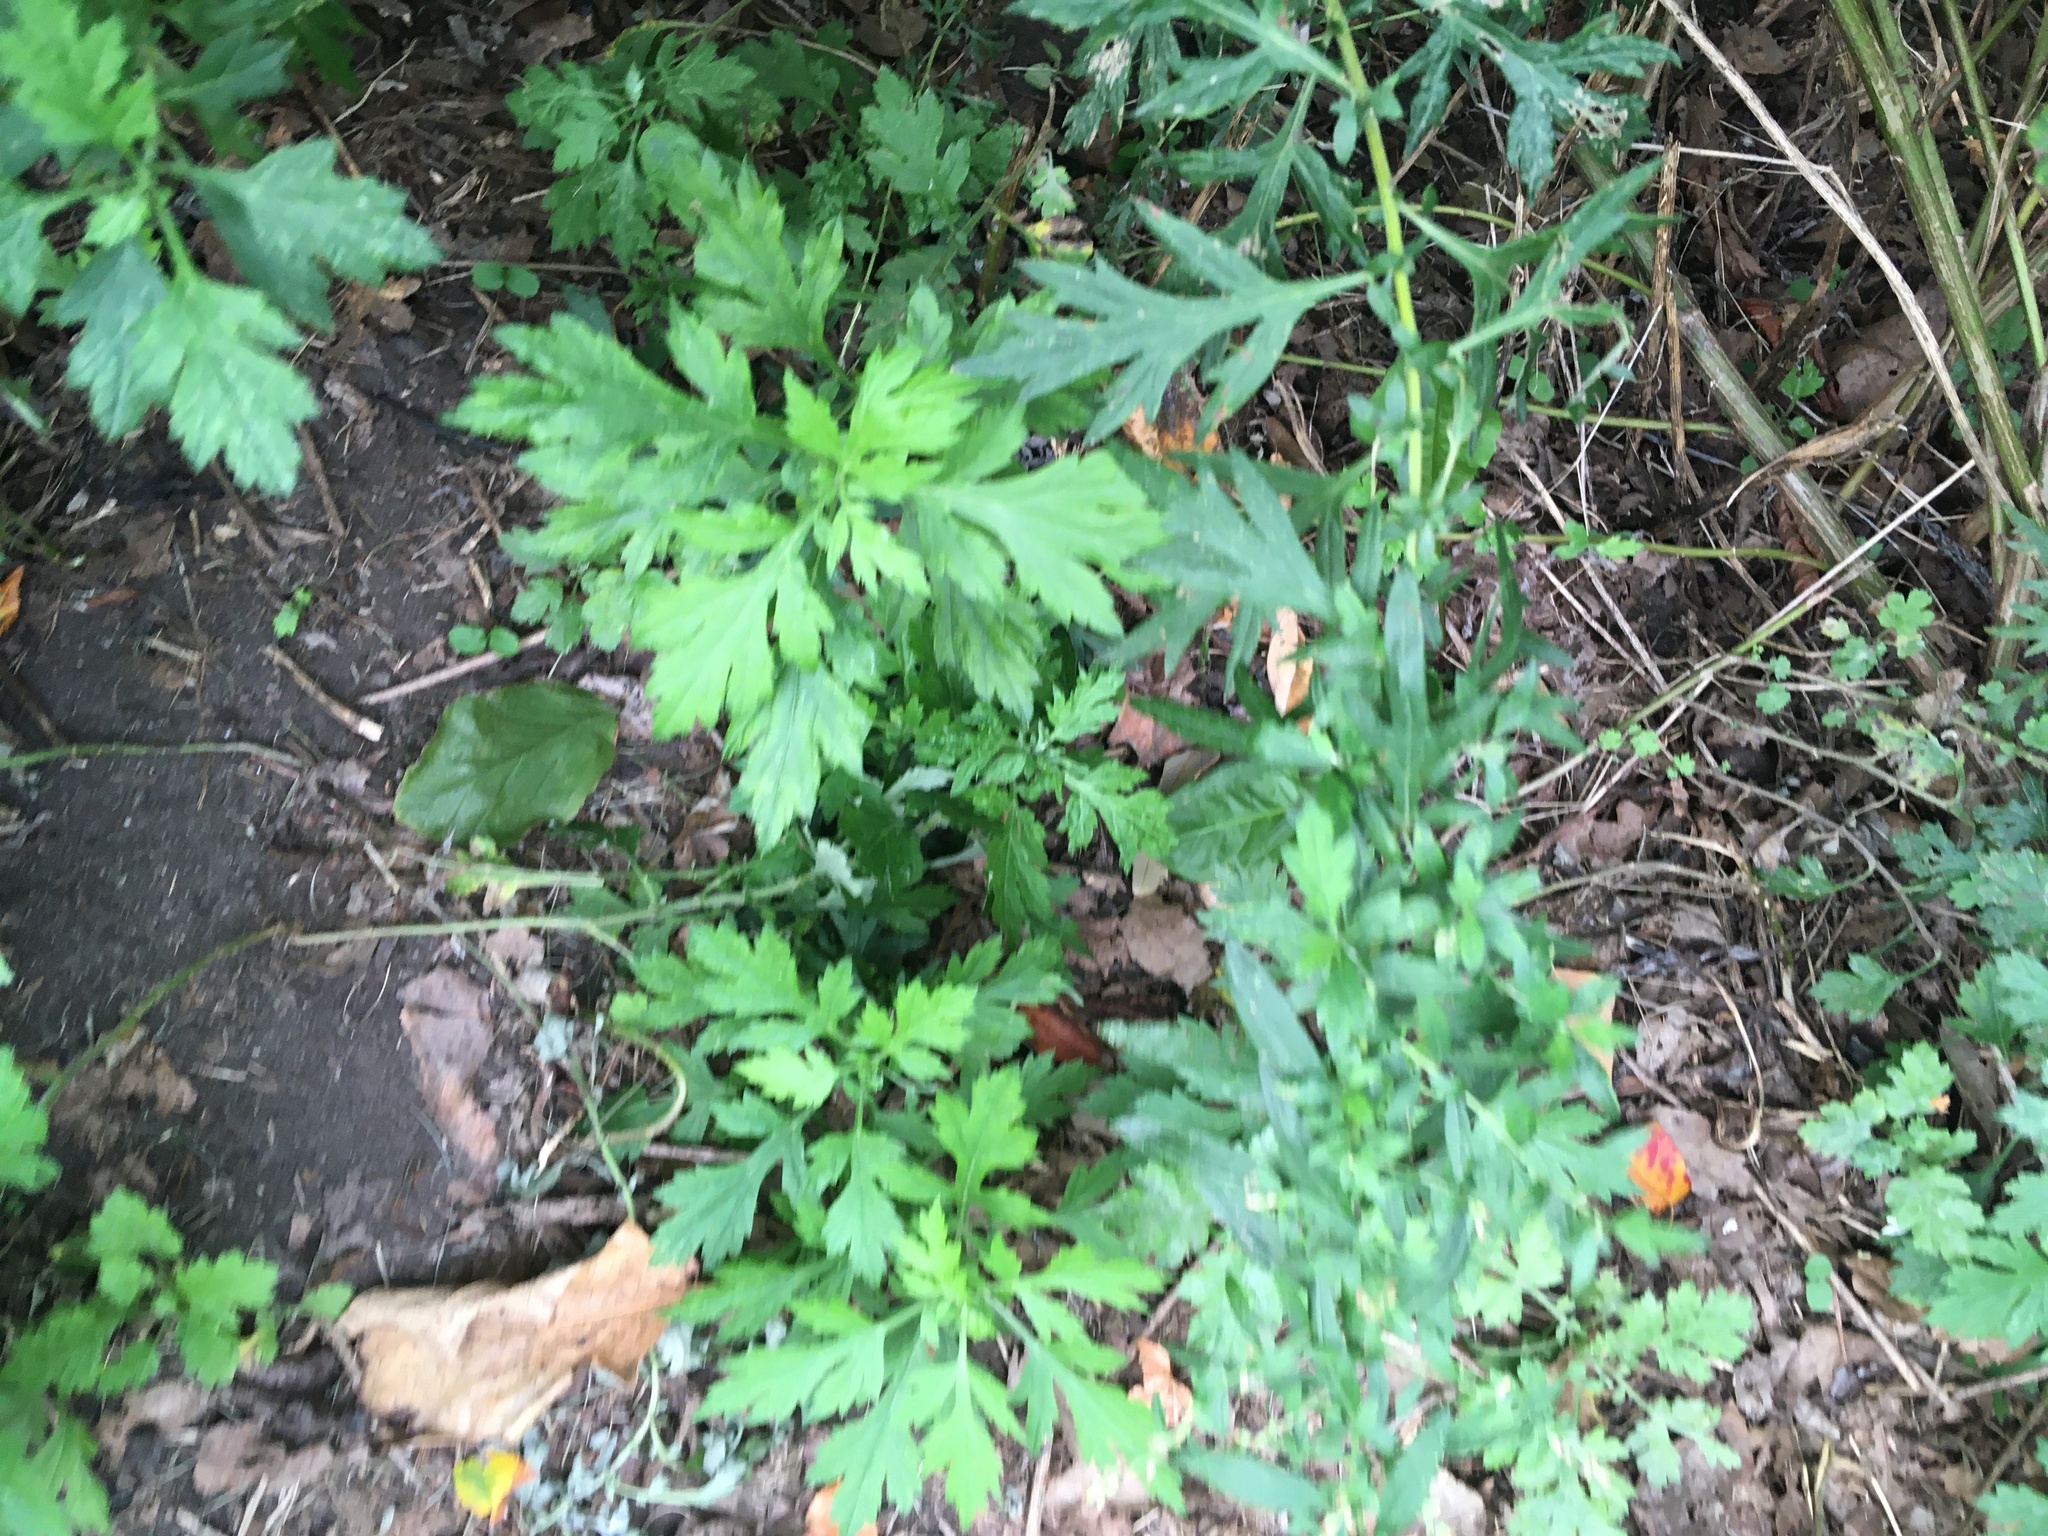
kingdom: Plantae
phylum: Tracheophyta
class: Magnoliopsida
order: Asterales
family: Asteraceae
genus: Artemisia
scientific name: Artemisia vulgaris
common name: Mugwort
